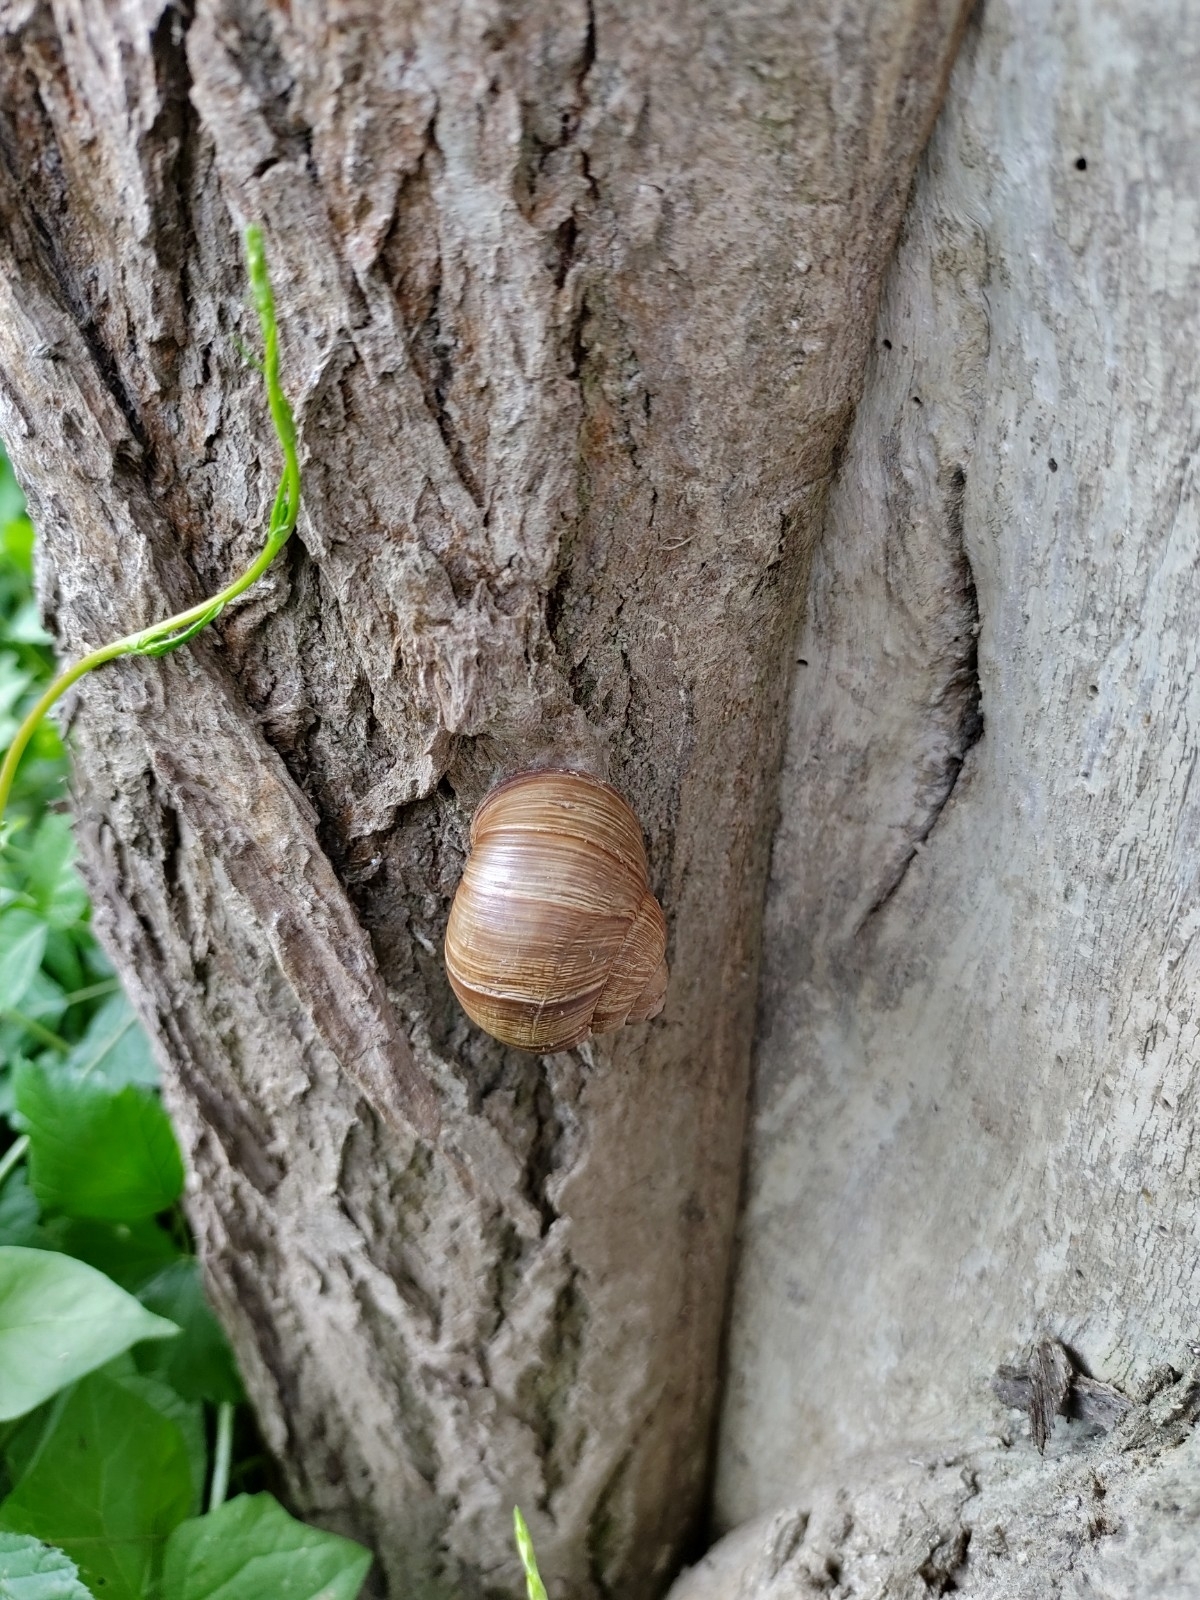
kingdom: Animalia
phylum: Mollusca
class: Gastropoda
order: Stylommatophora
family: Helicidae
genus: Helix
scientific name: Helix pomatia
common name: Roman snail
